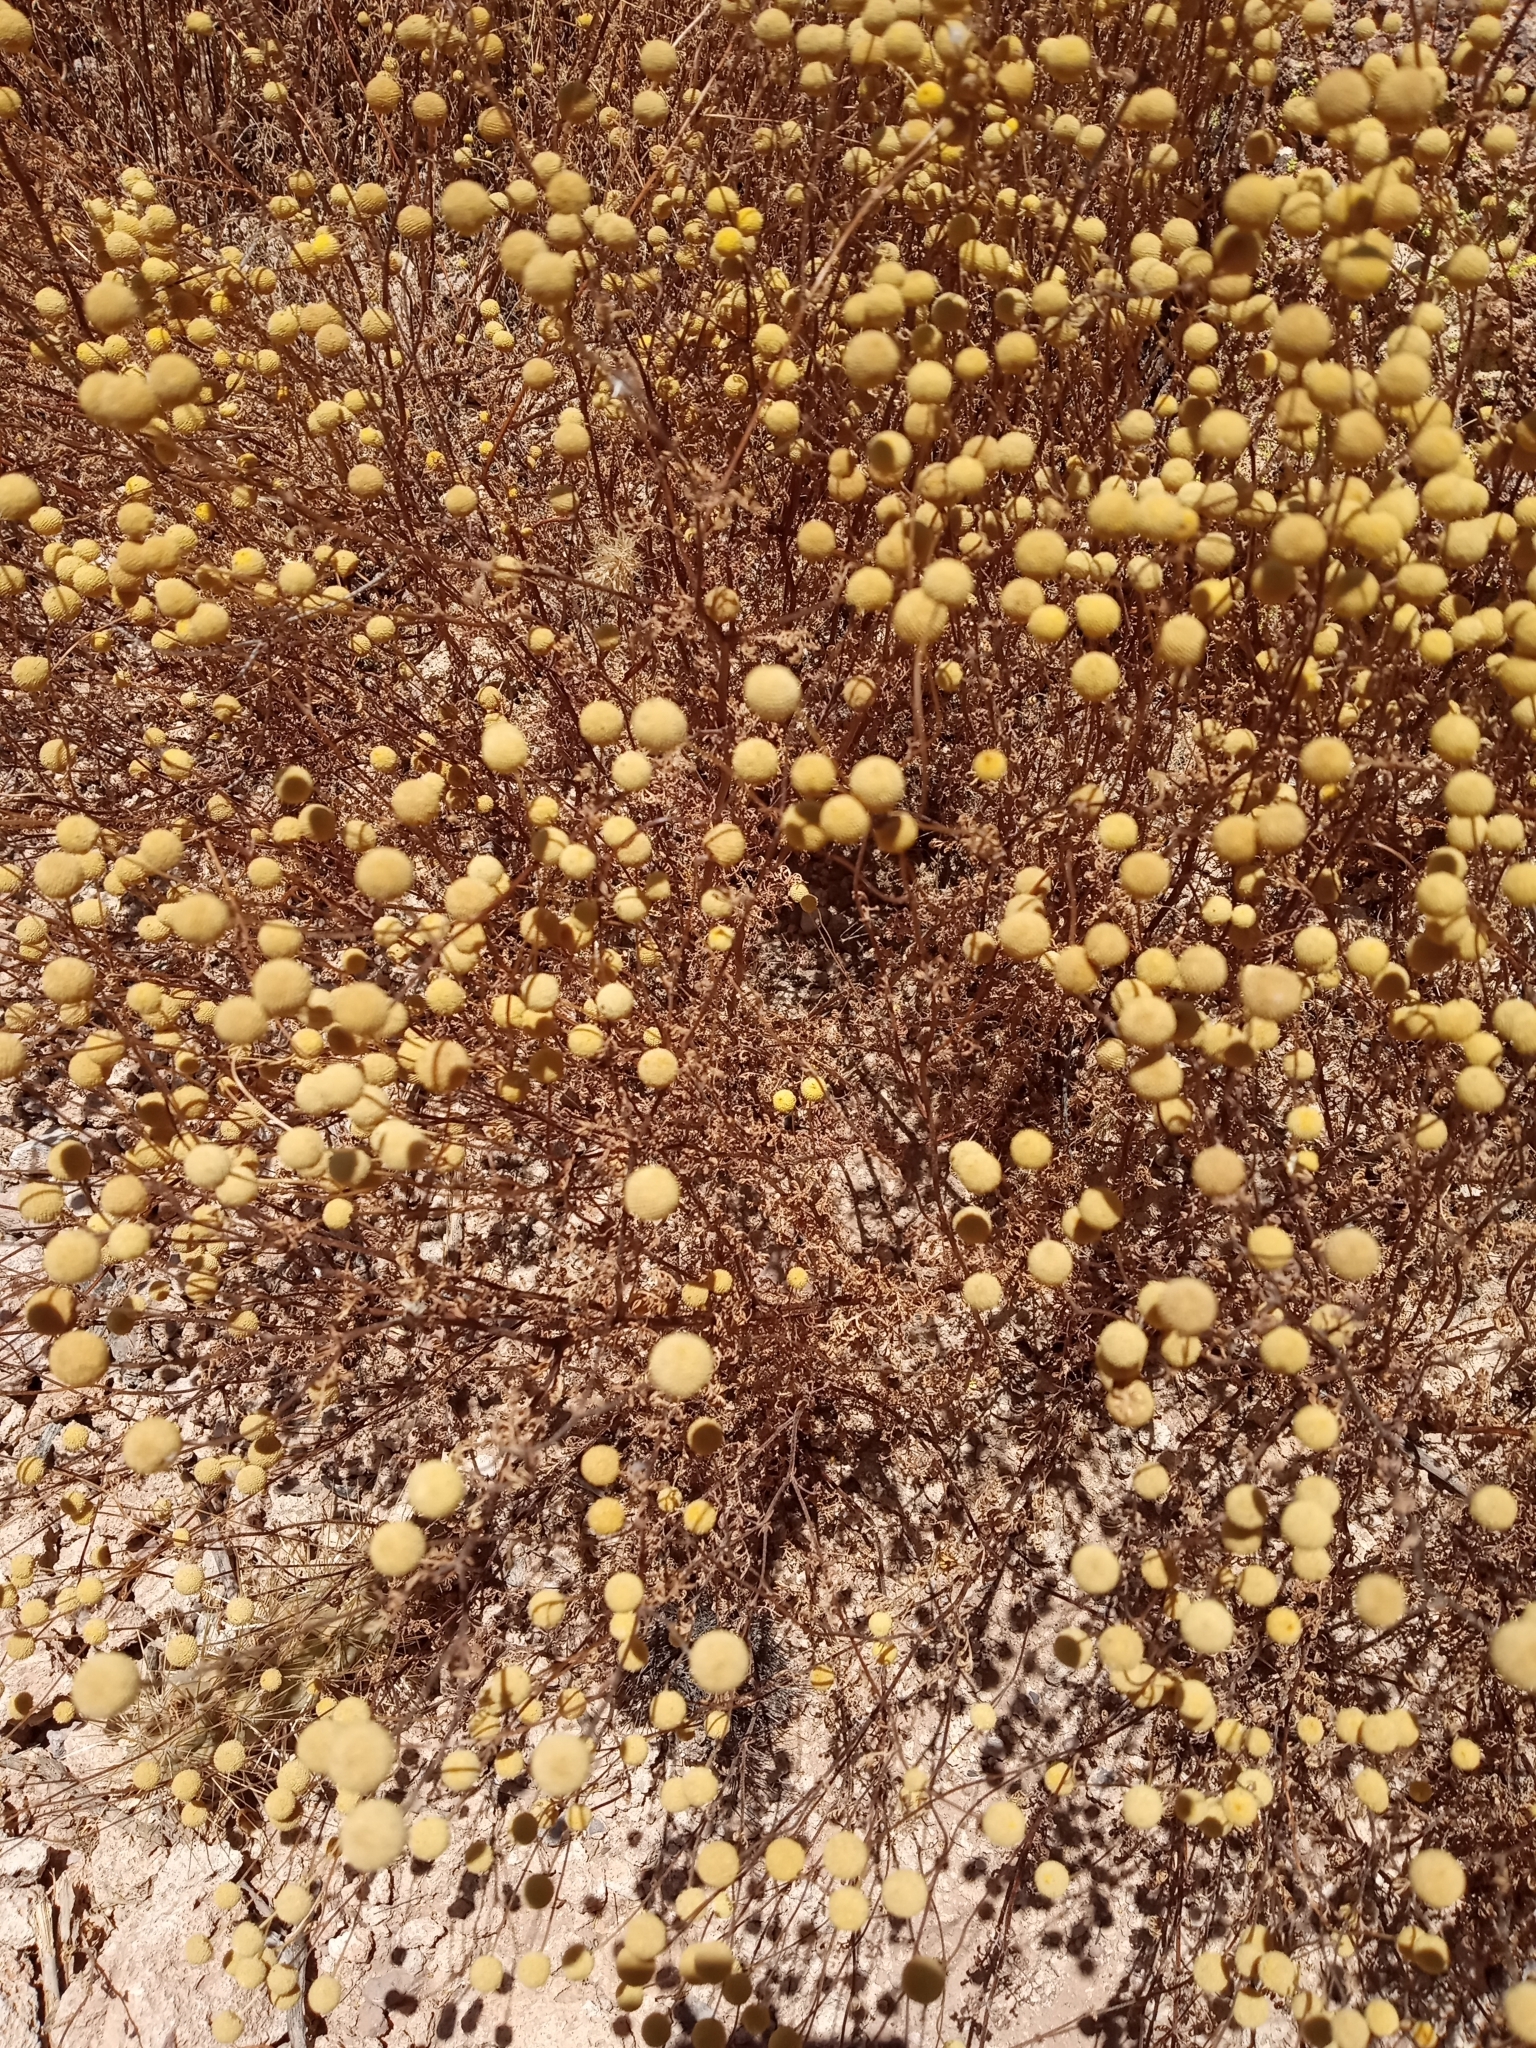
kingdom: Plantae
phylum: Tracheophyta
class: Magnoliopsida
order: Asterales
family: Asteraceae
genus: Oncosiphon
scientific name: Oncosiphon pilulifer
